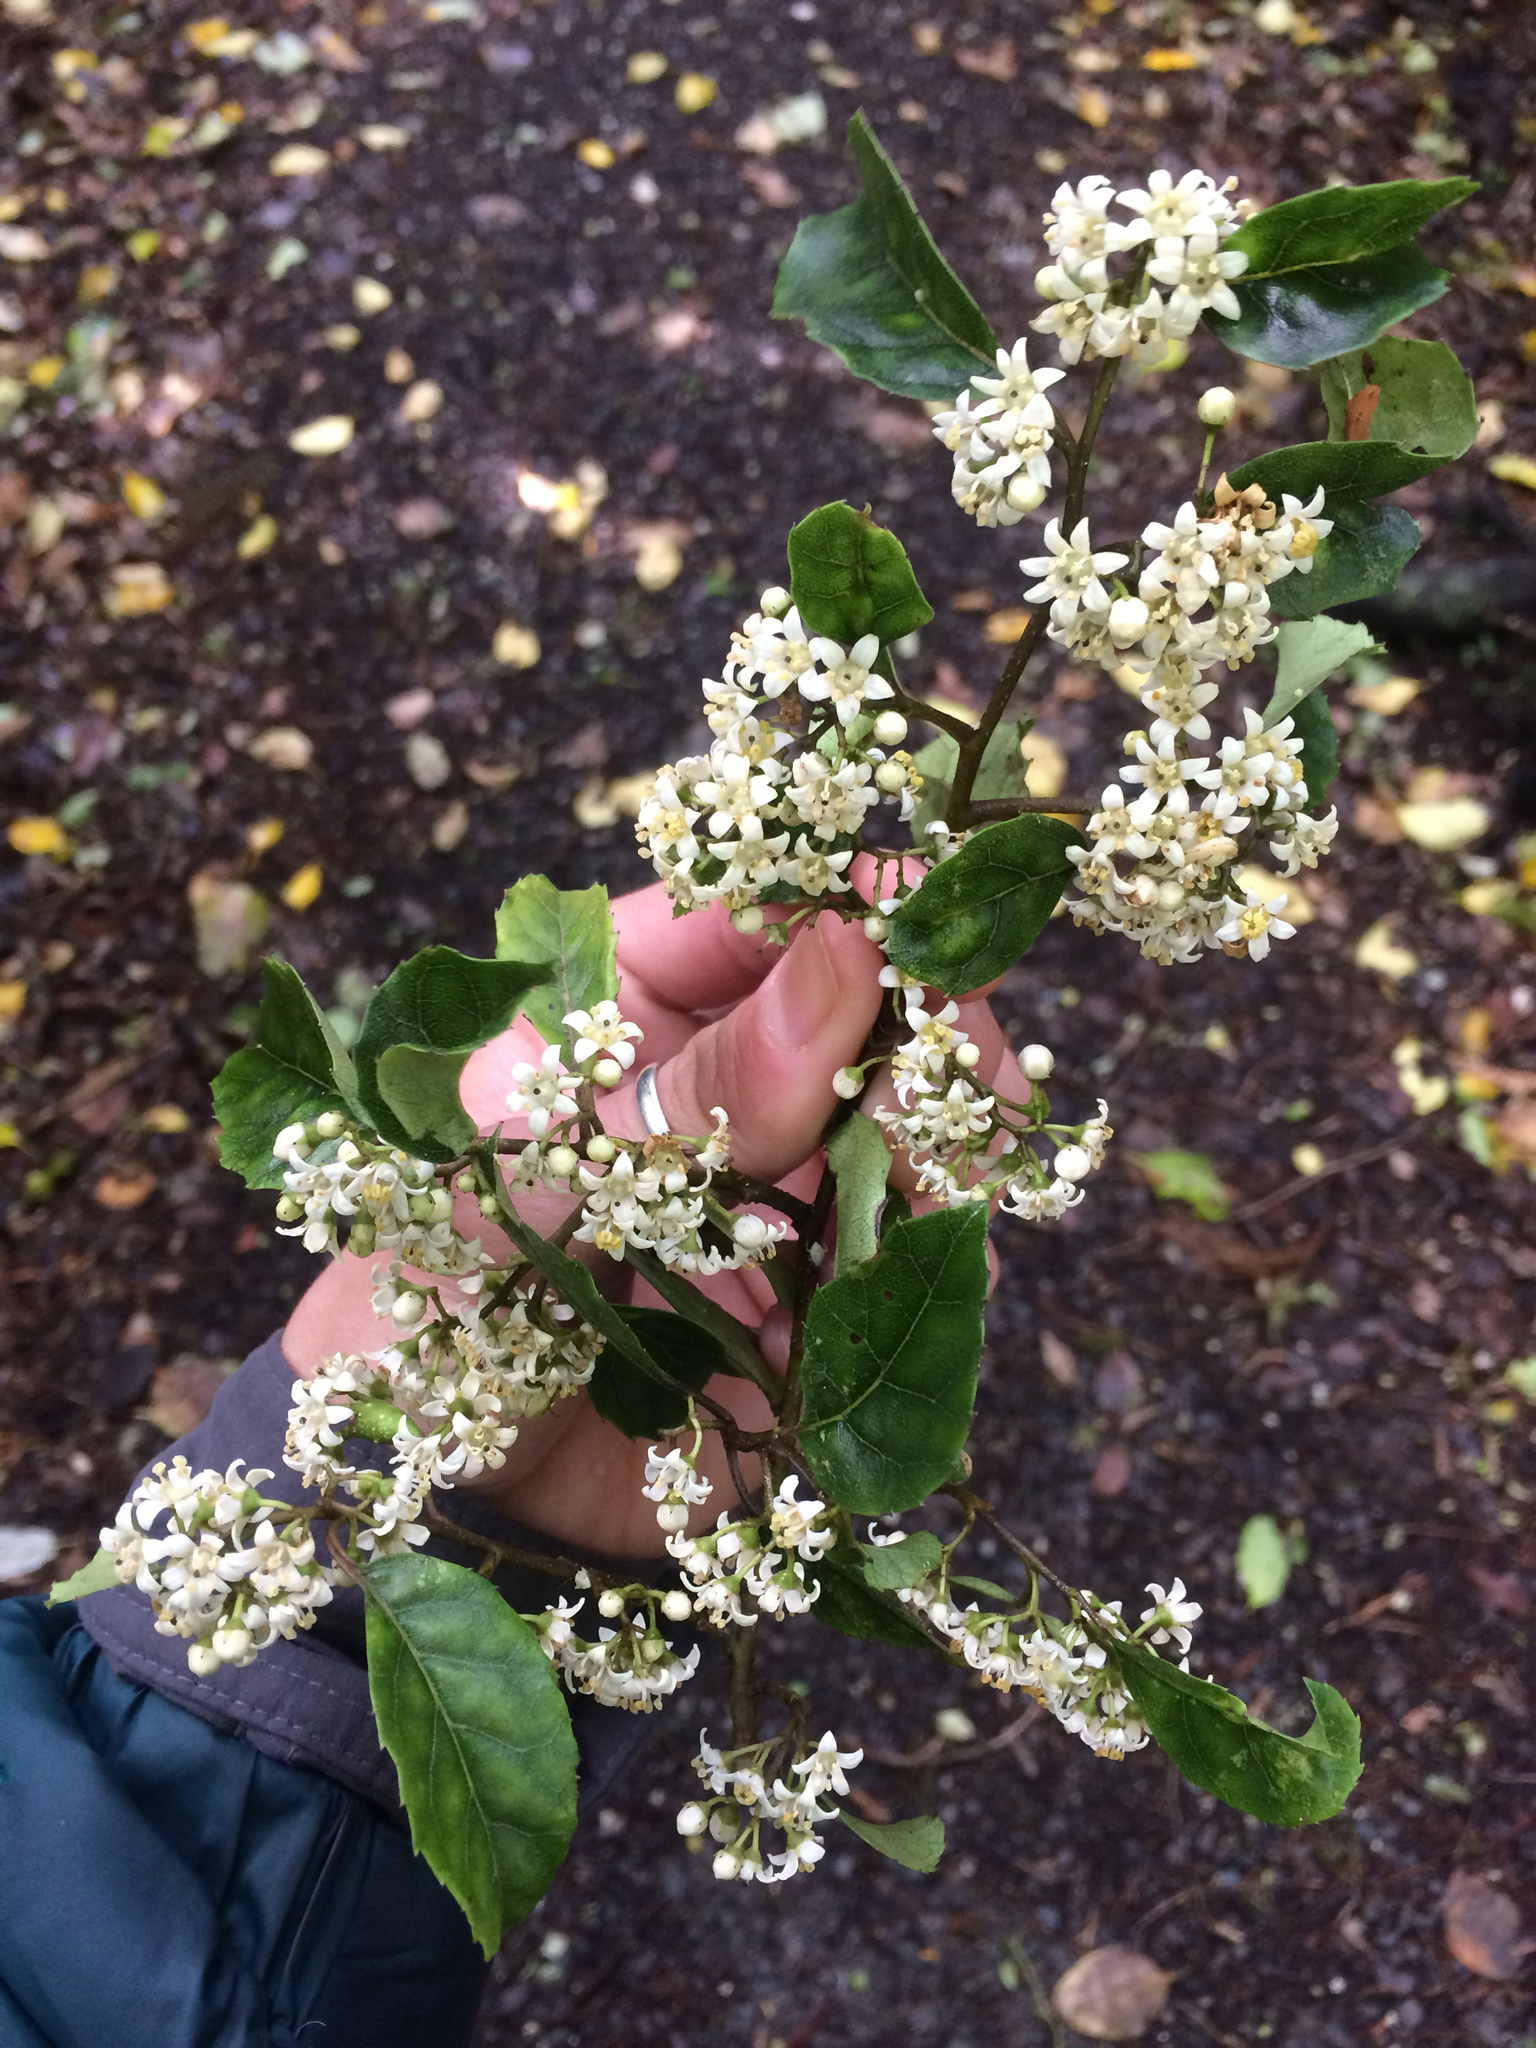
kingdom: Plantae
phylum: Tracheophyta
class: Magnoliopsida
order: Asterales
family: Rousseaceae
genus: Carpodetus
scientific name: Carpodetus serratus
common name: White mapau
